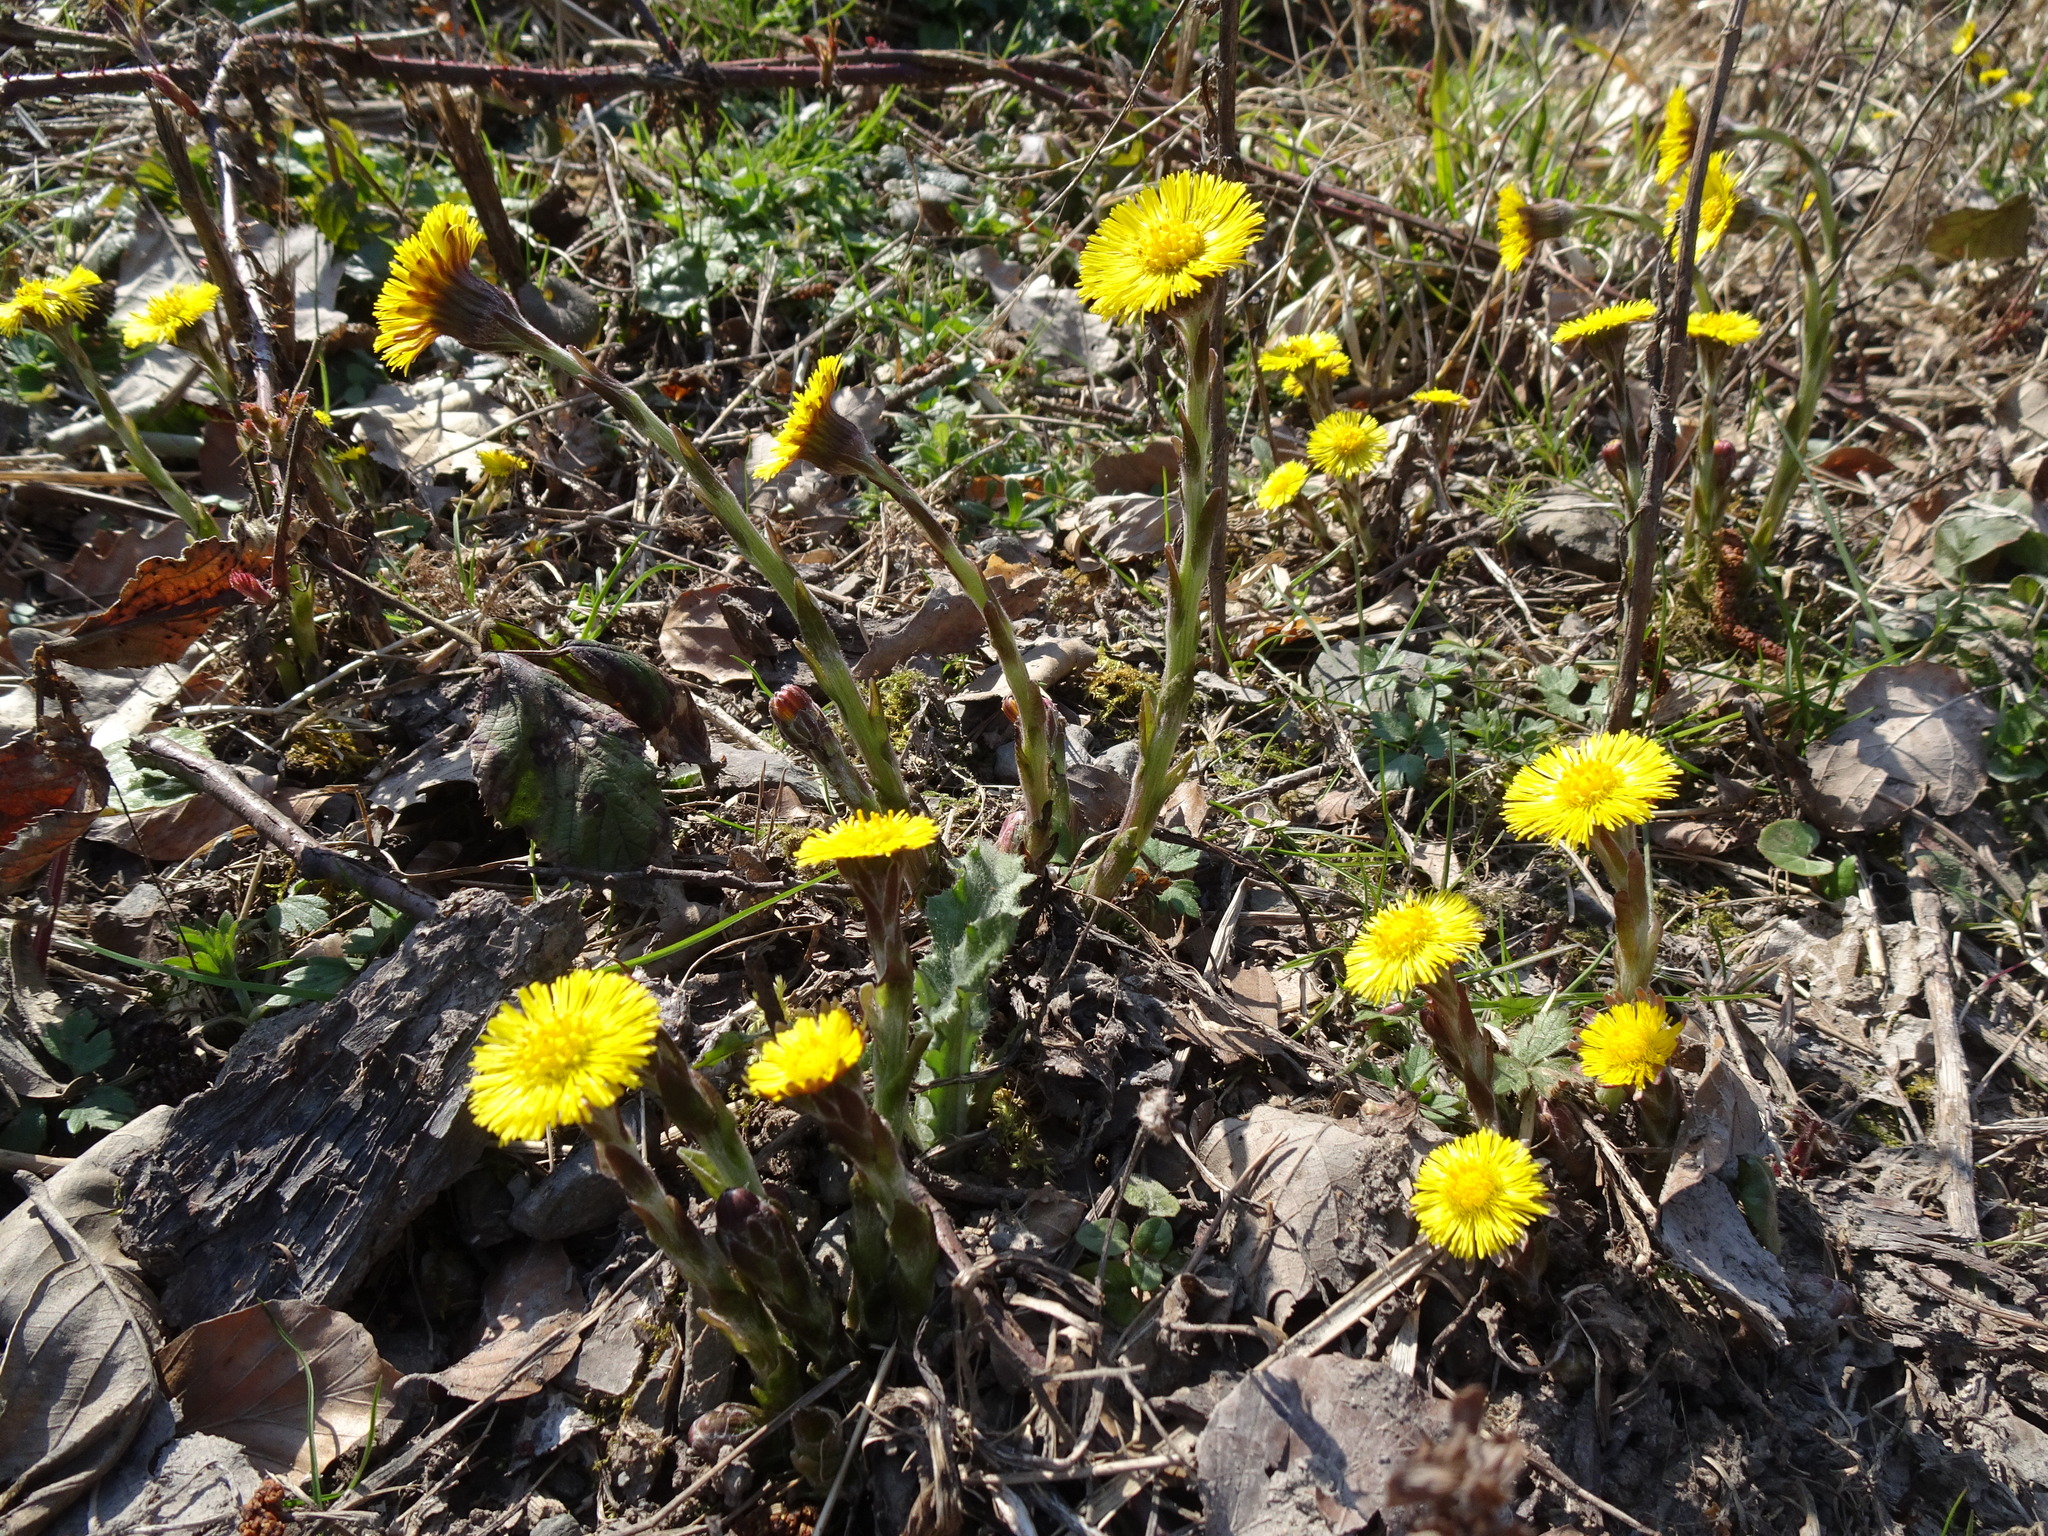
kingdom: Plantae
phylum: Tracheophyta
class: Magnoliopsida
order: Asterales
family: Asteraceae
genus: Tussilago
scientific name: Tussilago farfara
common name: Coltsfoot
